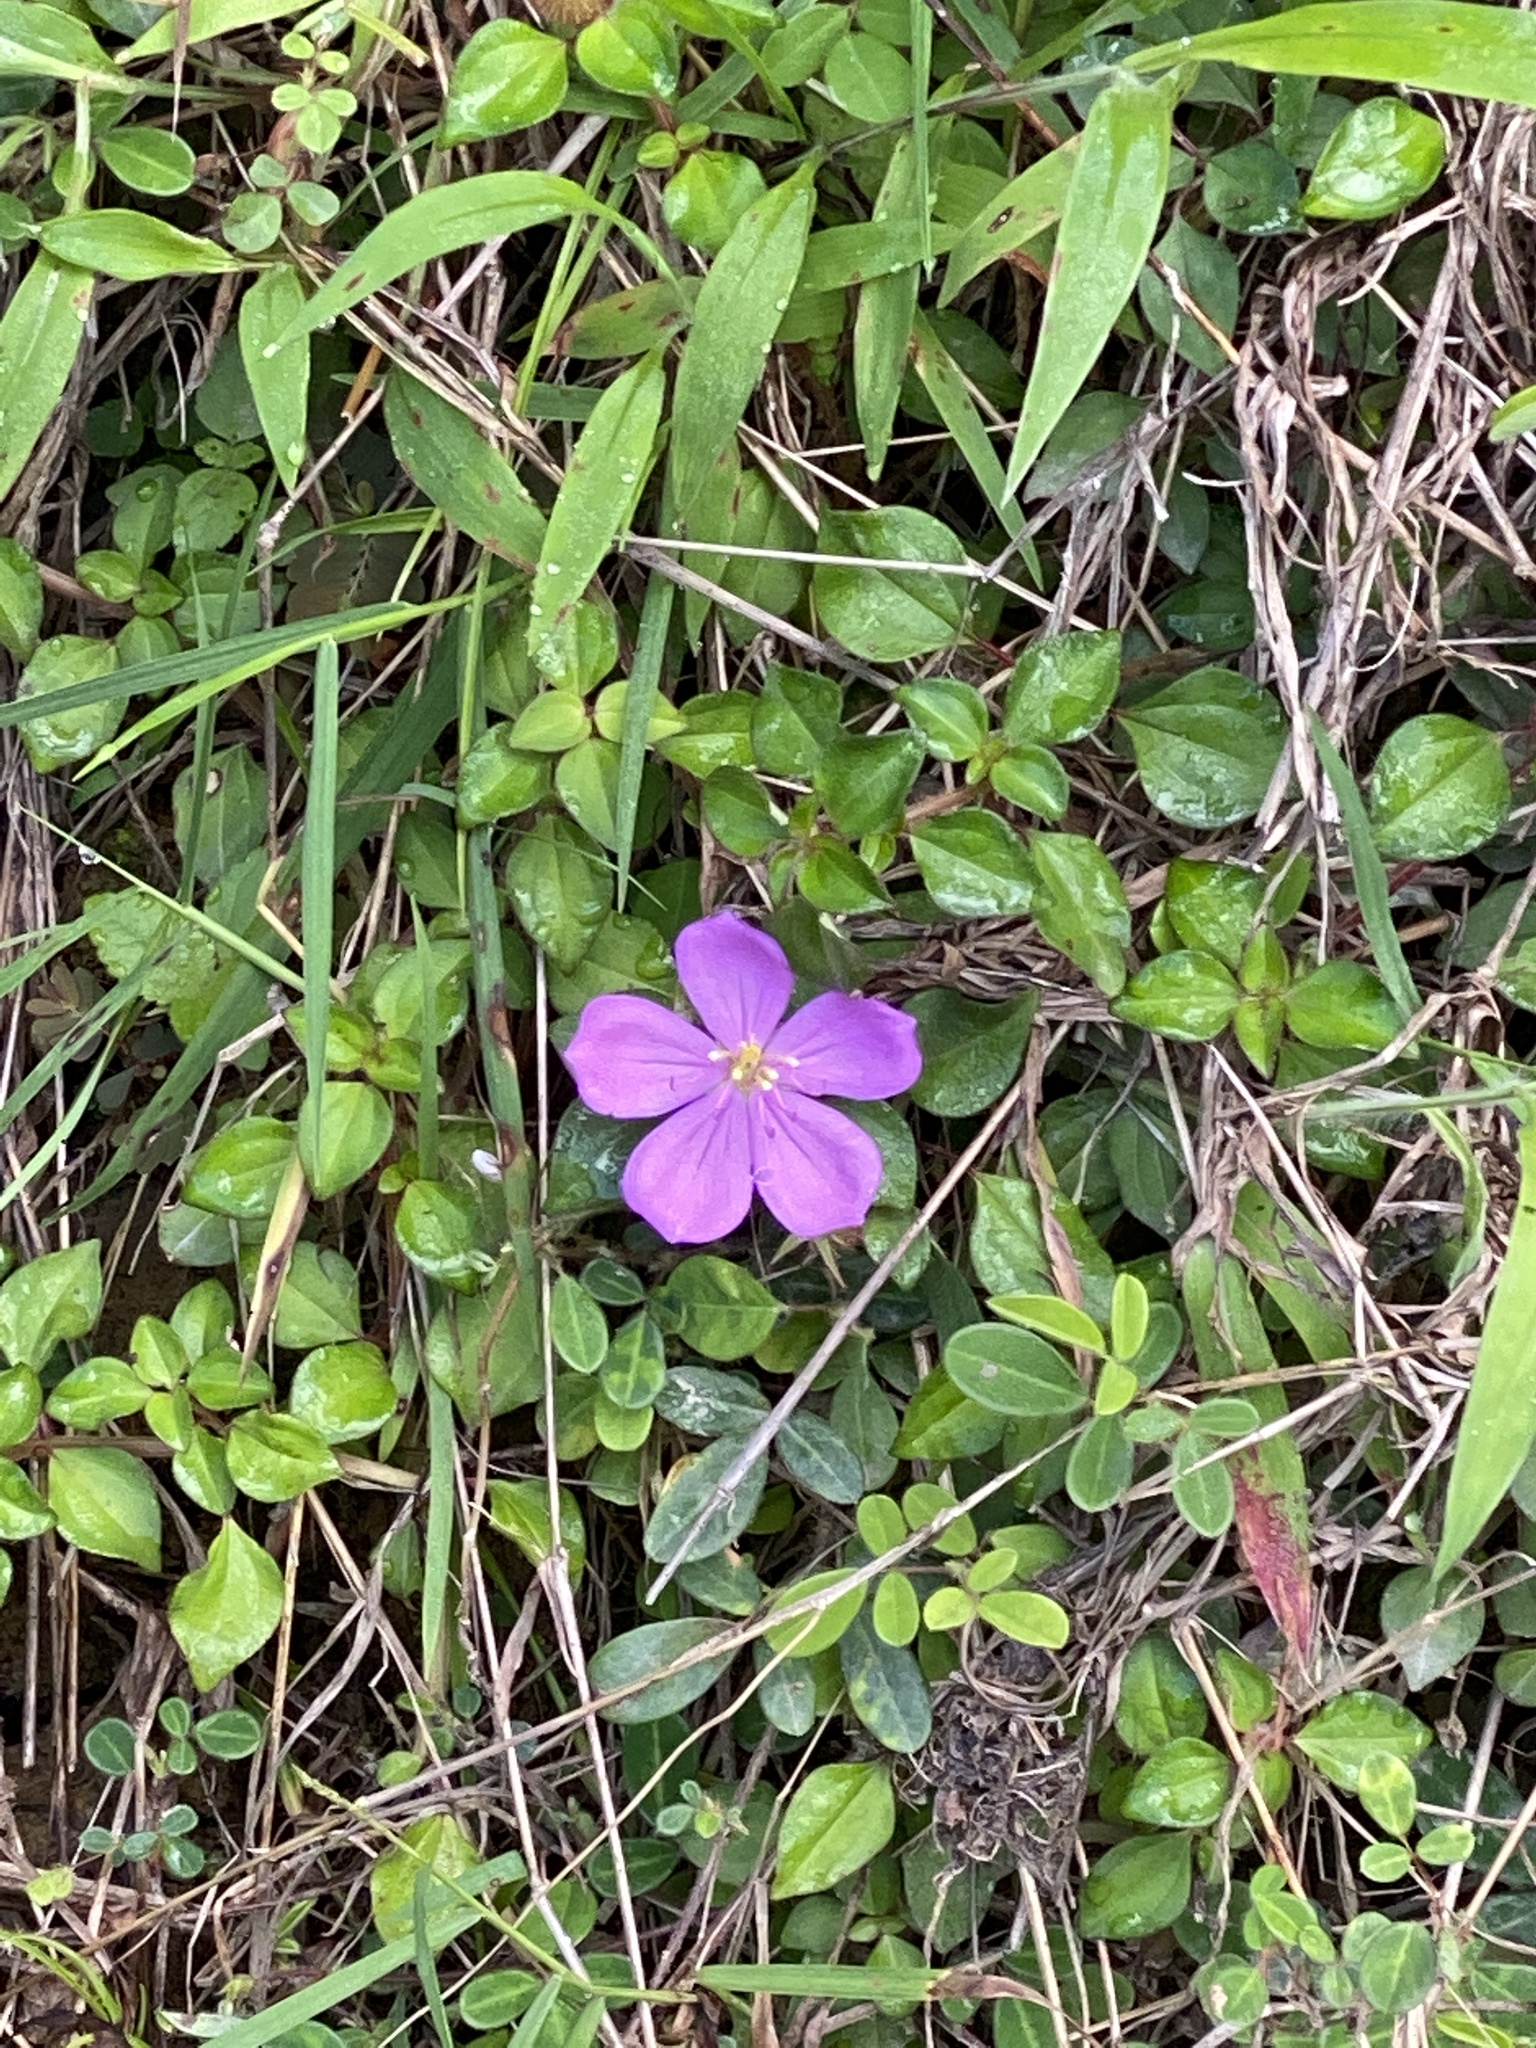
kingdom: Plantae
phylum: Tracheophyta
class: Magnoliopsida
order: Myrtales
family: Melastomataceae
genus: Heterotis
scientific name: Heterotis rotundifolia
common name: Pinklady
